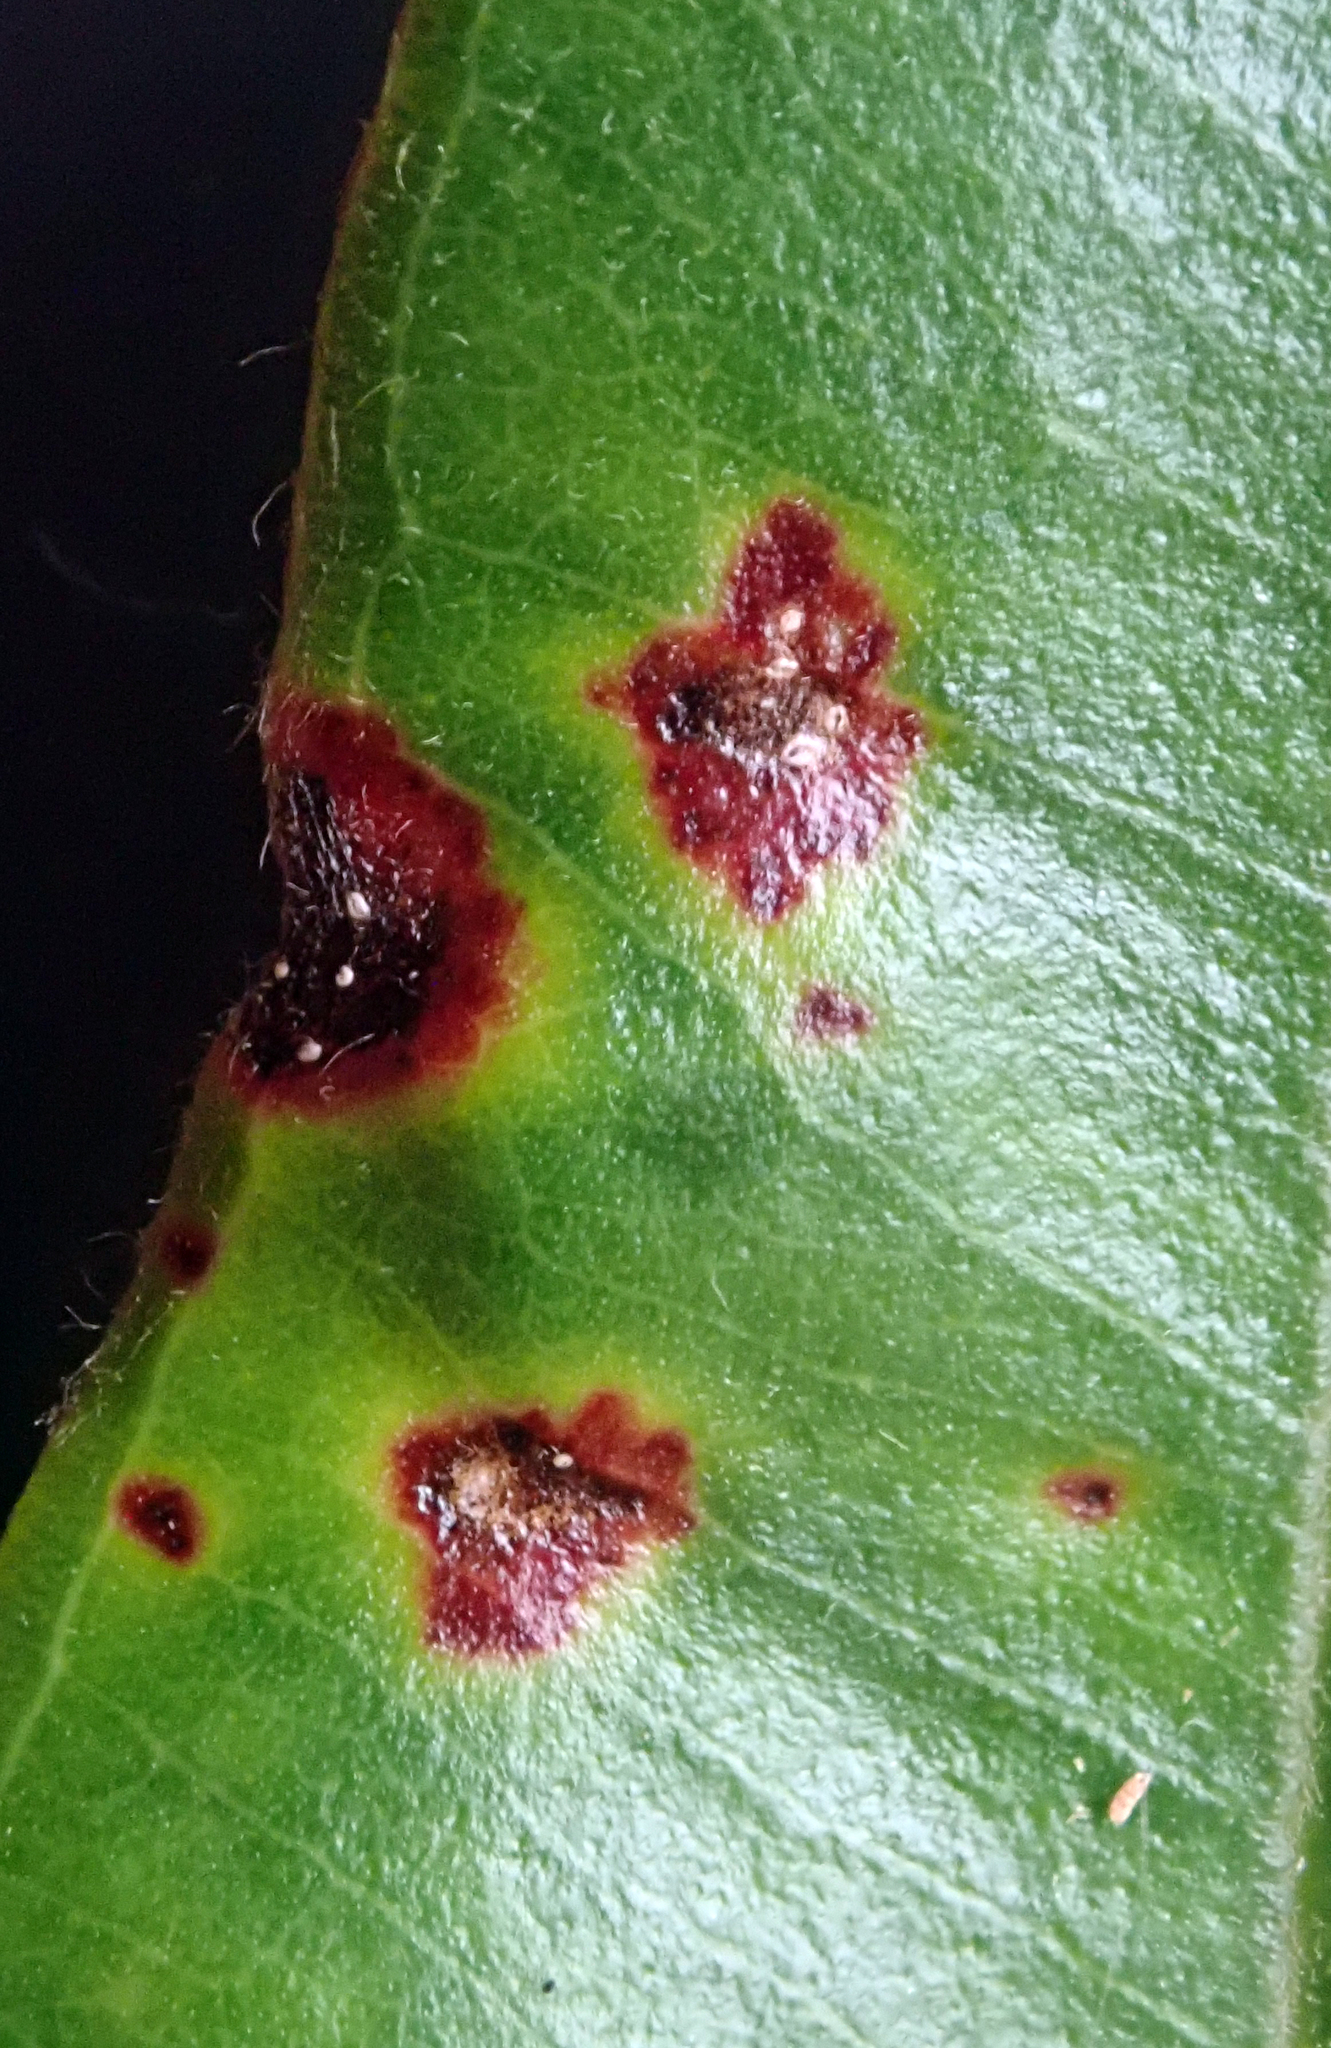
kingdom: Fungi
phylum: Basidiomycota
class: Pucciniomycetes
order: Pucciniales
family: Sphaerophragmiaceae
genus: Austropuccinia
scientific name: Austropuccinia psidii
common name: Myrtle rust
